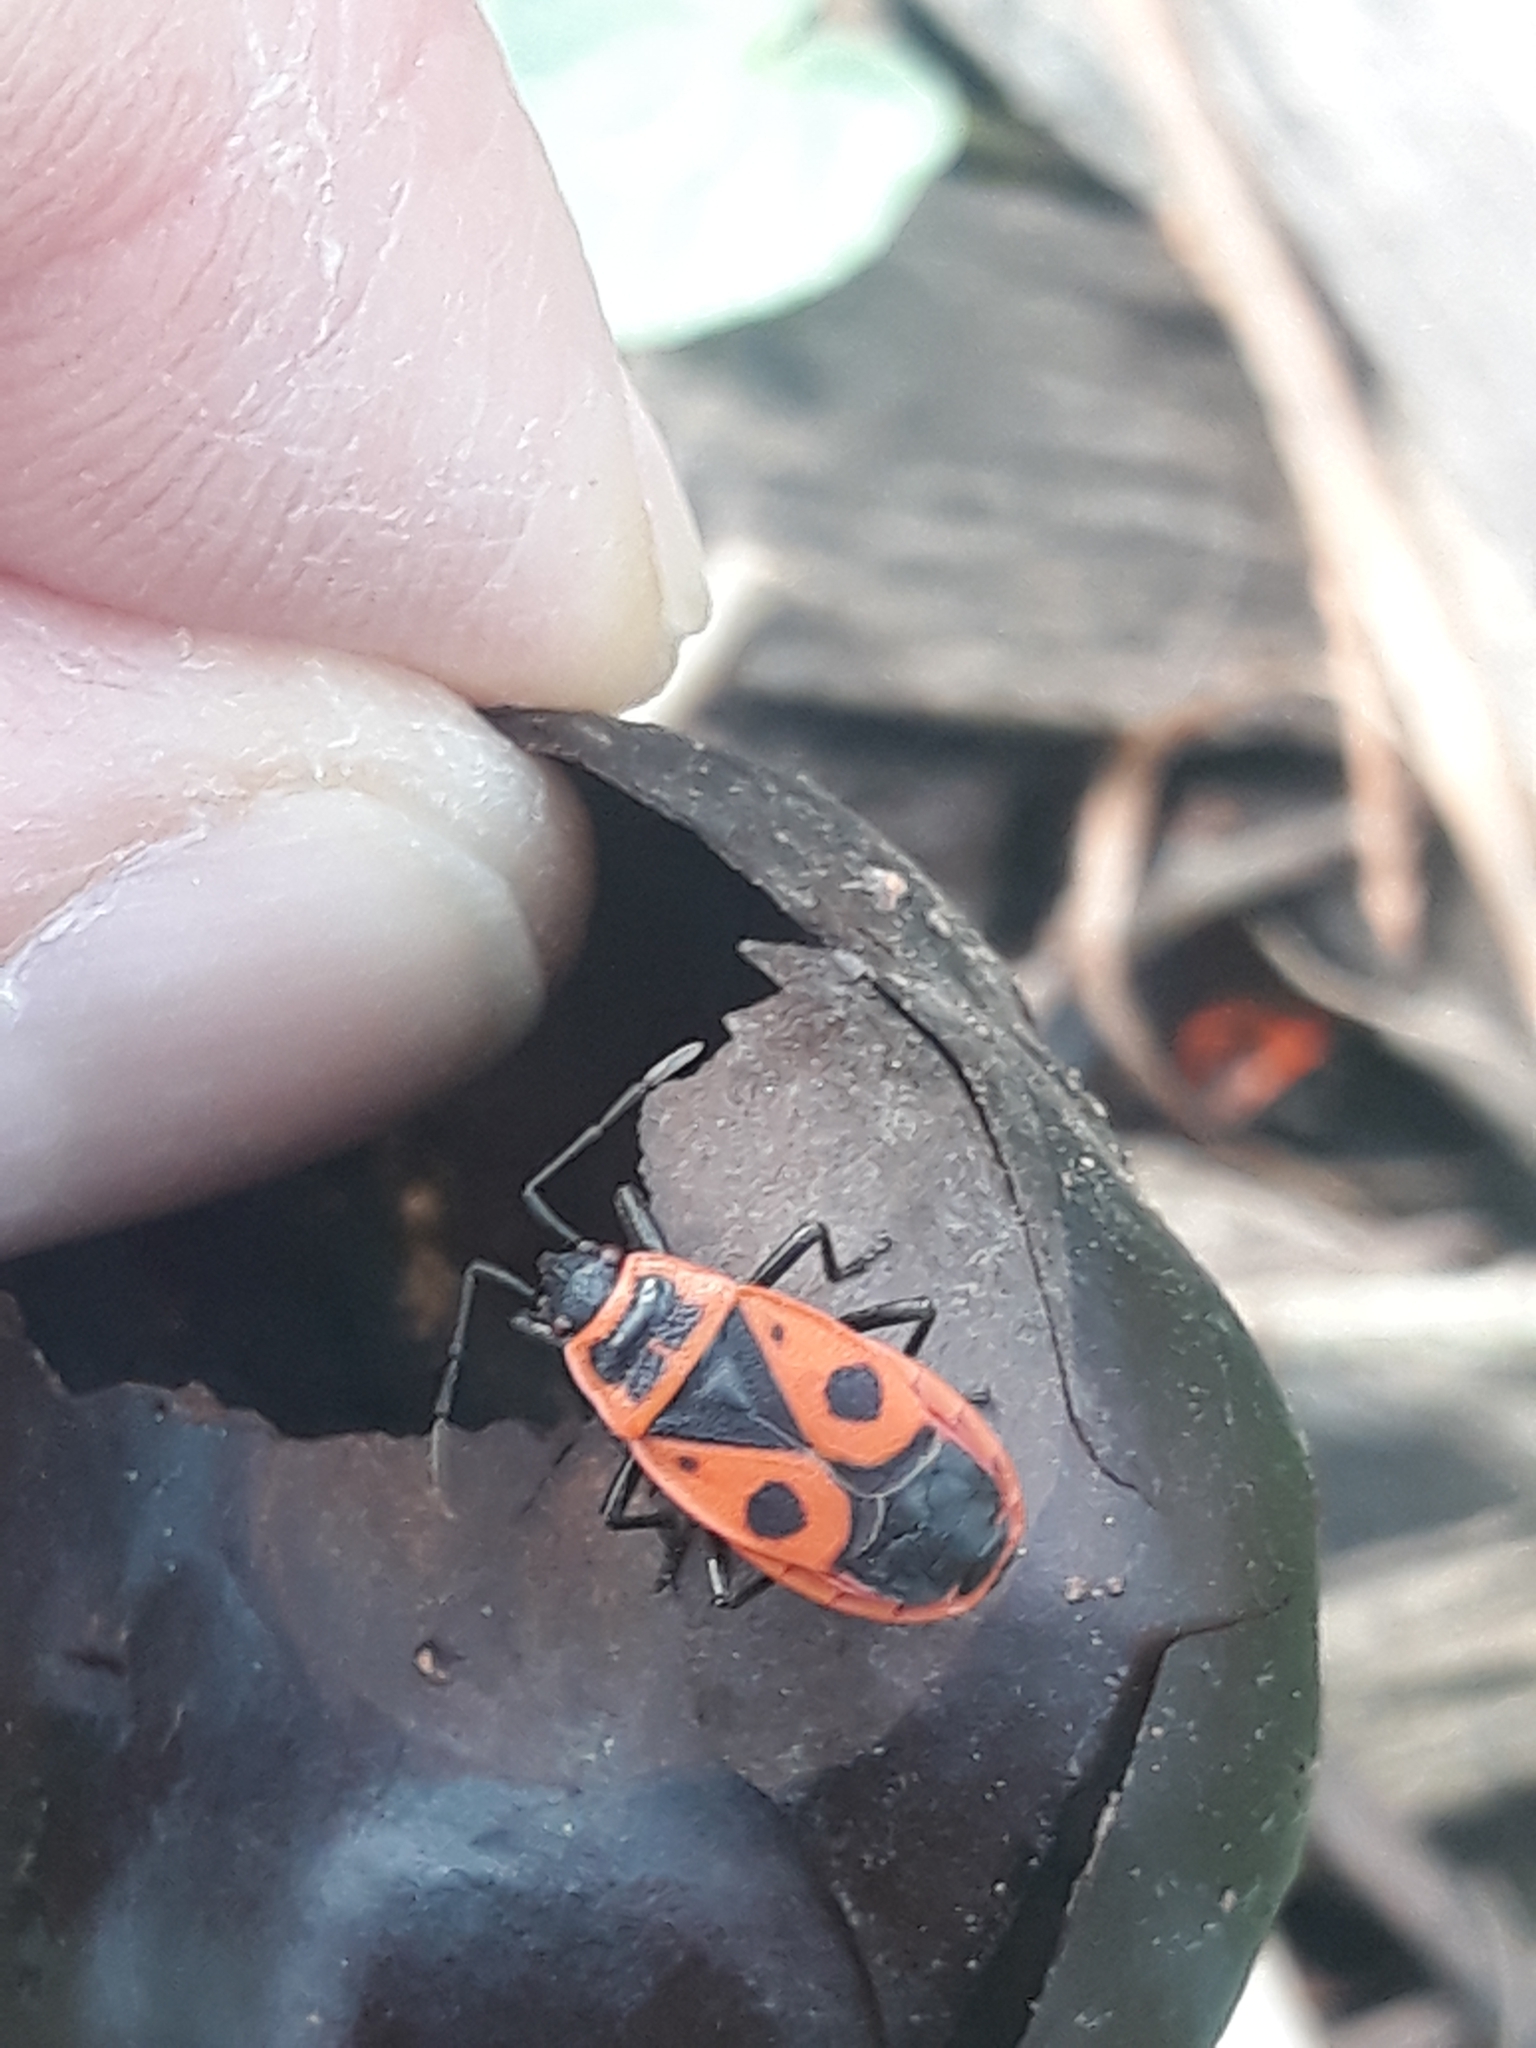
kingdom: Animalia
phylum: Arthropoda
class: Insecta
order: Hemiptera
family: Pyrrhocoridae
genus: Pyrrhocoris
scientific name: Pyrrhocoris apterus
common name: Firebug
